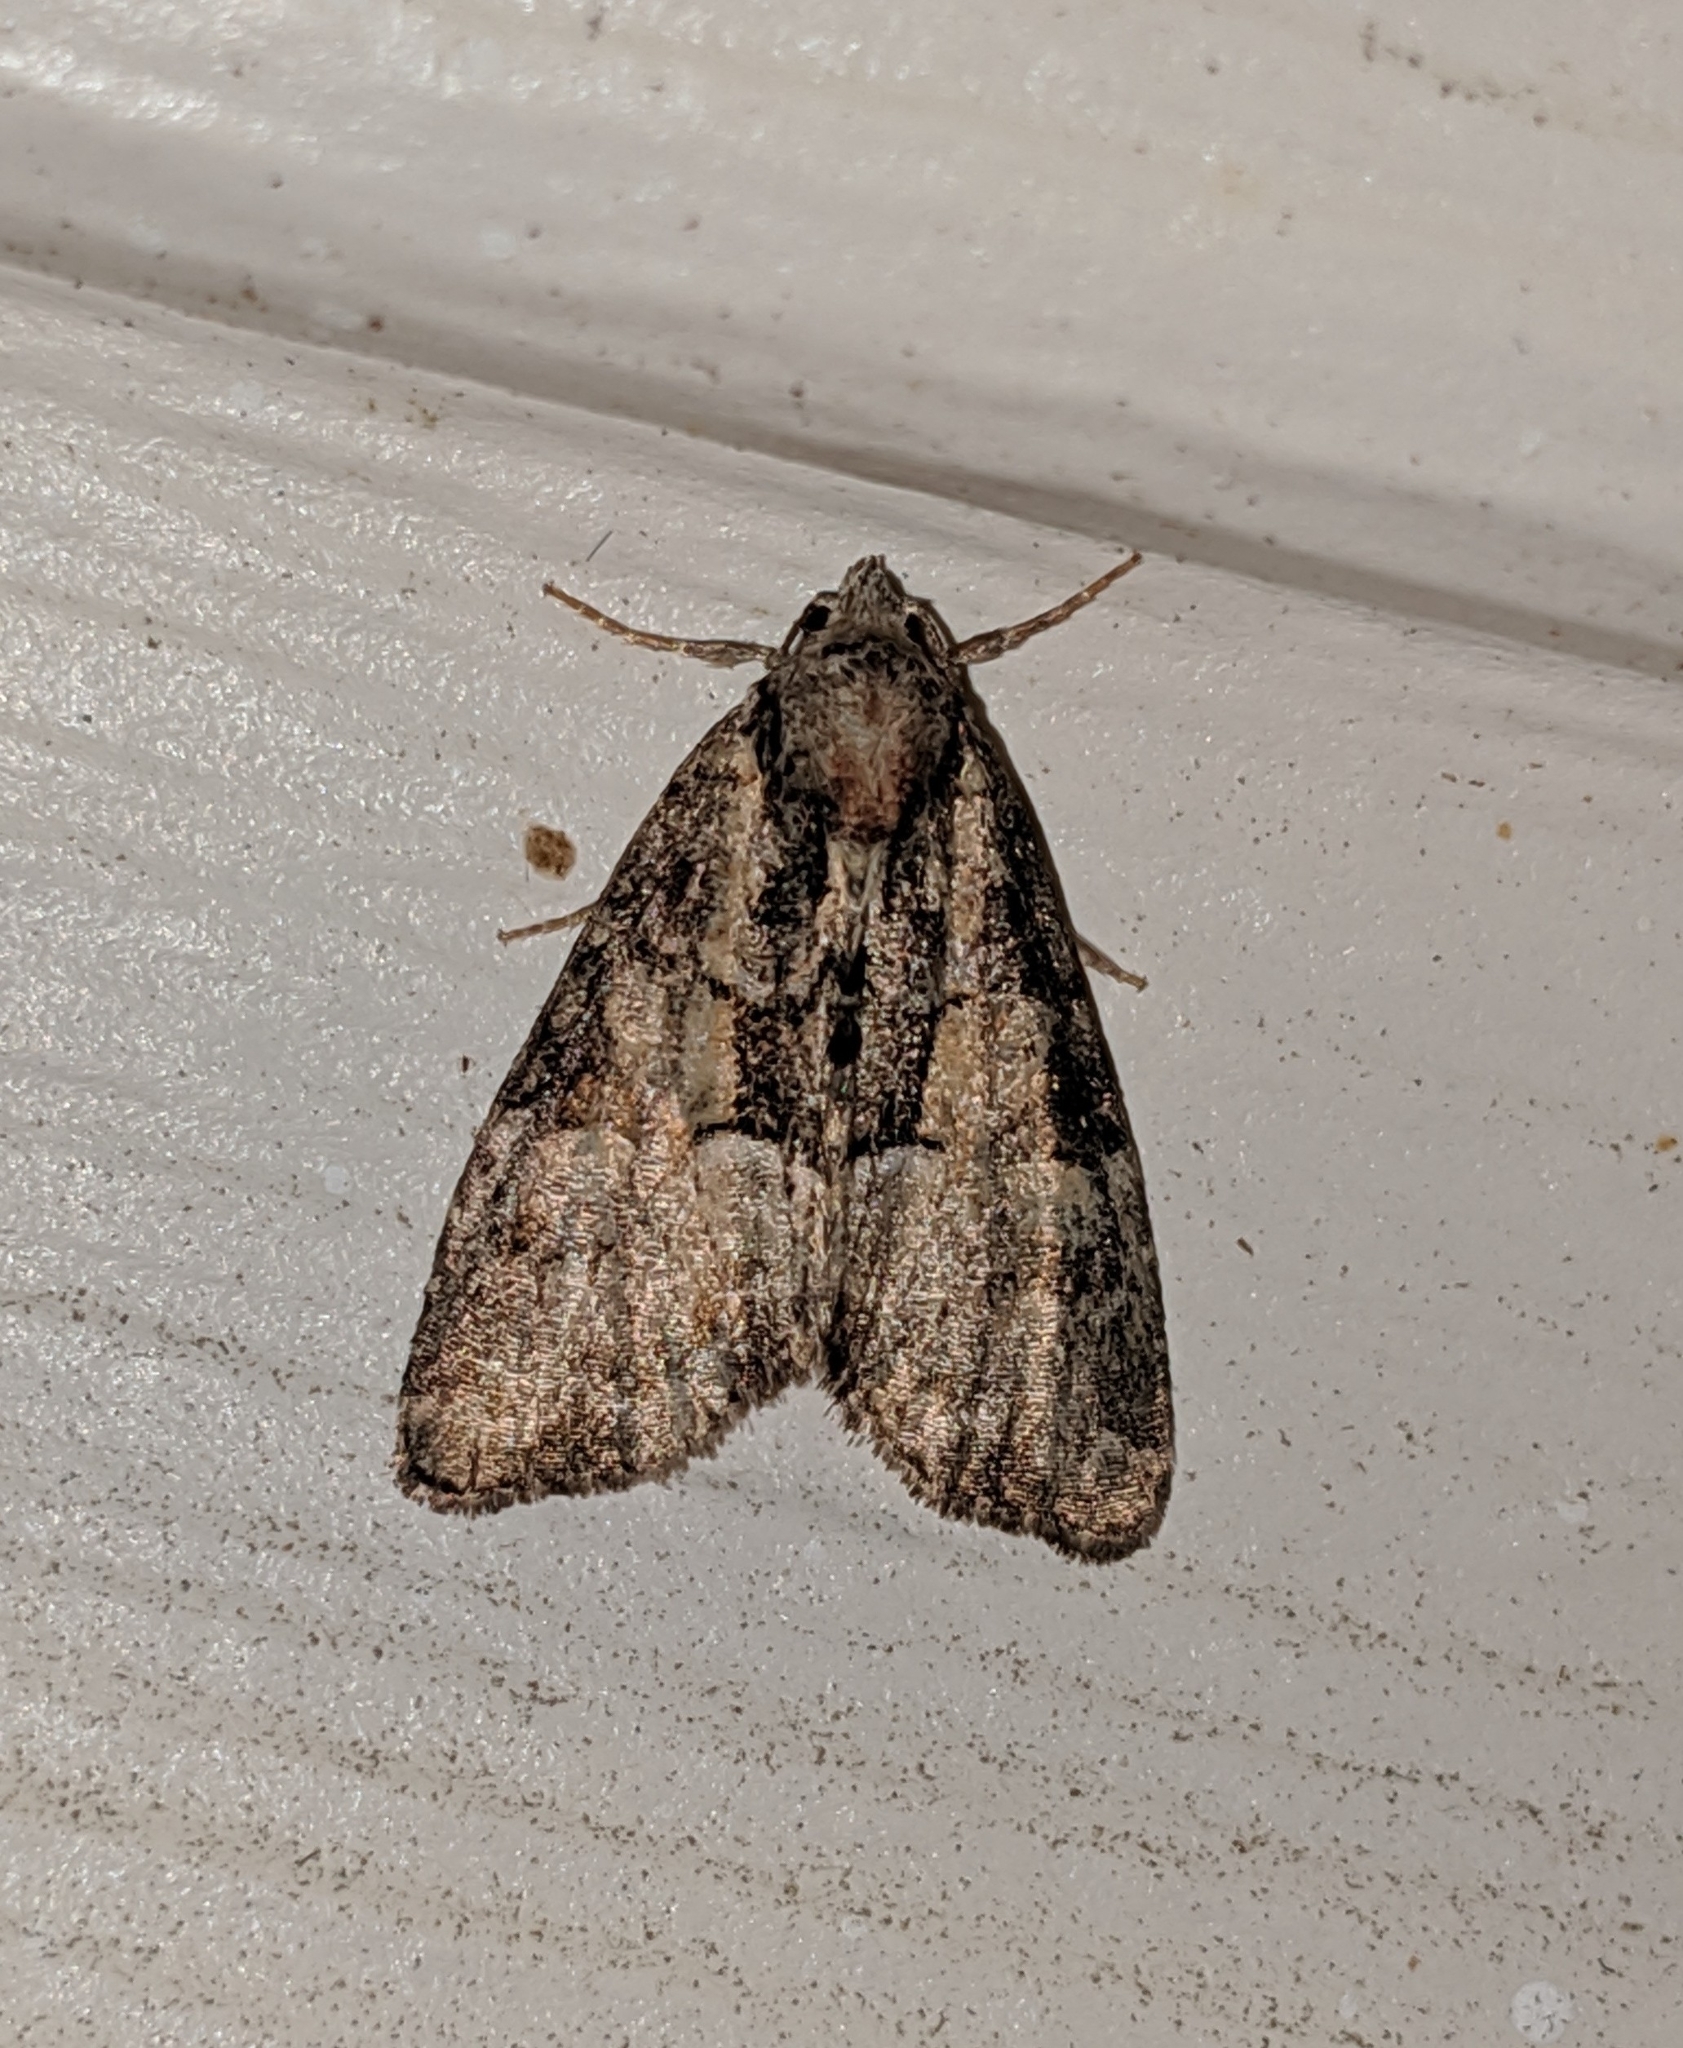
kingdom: Animalia
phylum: Arthropoda
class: Insecta
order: Lepidoptera
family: Noctuidae
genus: Neoligia
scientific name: Neoligia subjuncta
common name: Connected brocade
